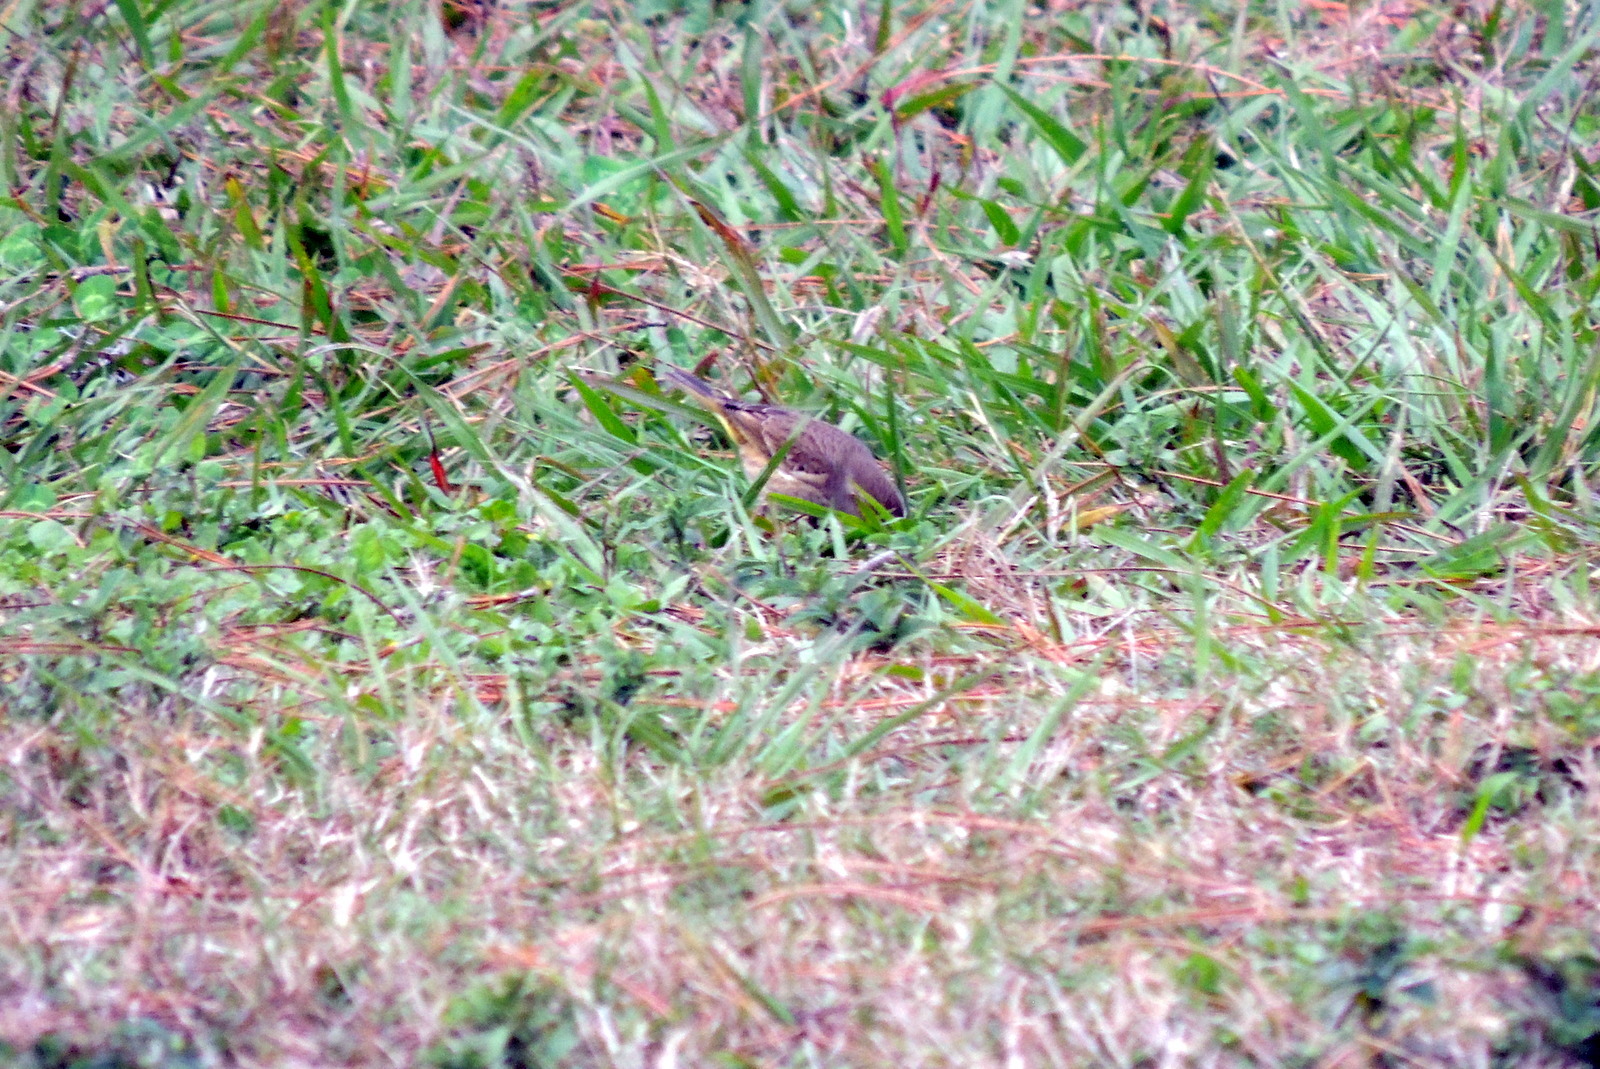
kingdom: Animalia
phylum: Chordata
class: Aves
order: Passeriformes
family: Parulidae
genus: Setophaga
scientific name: Setophaga palmarum
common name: Palm warbler
